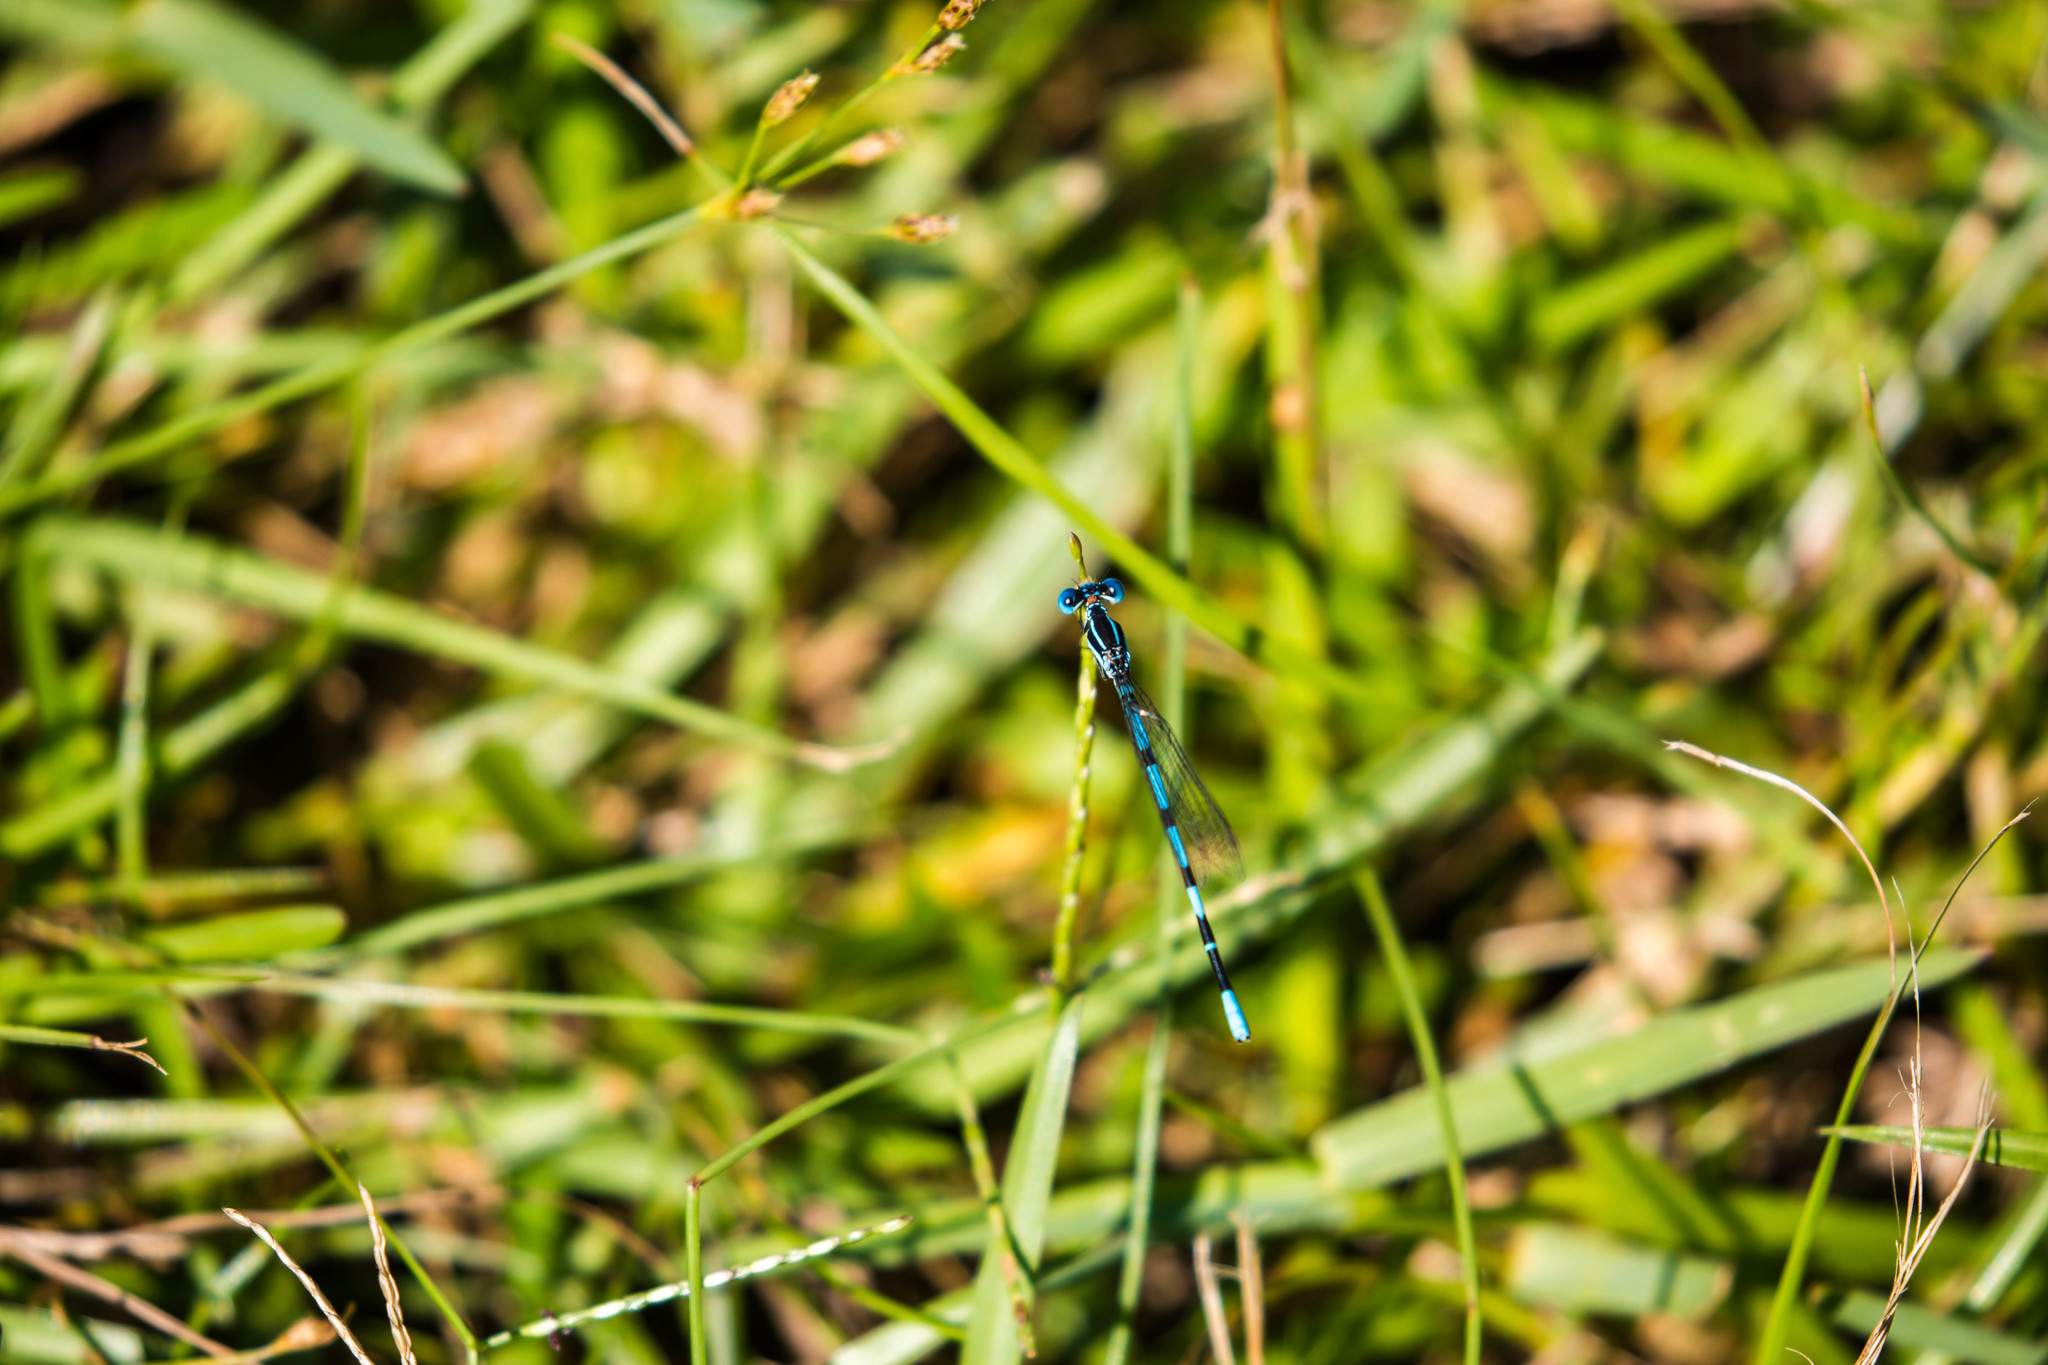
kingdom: Animalia
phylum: Arthropoda
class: Insecta
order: Odonata
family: Coenagrionidae
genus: Argia
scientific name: Argia bipunctulata
